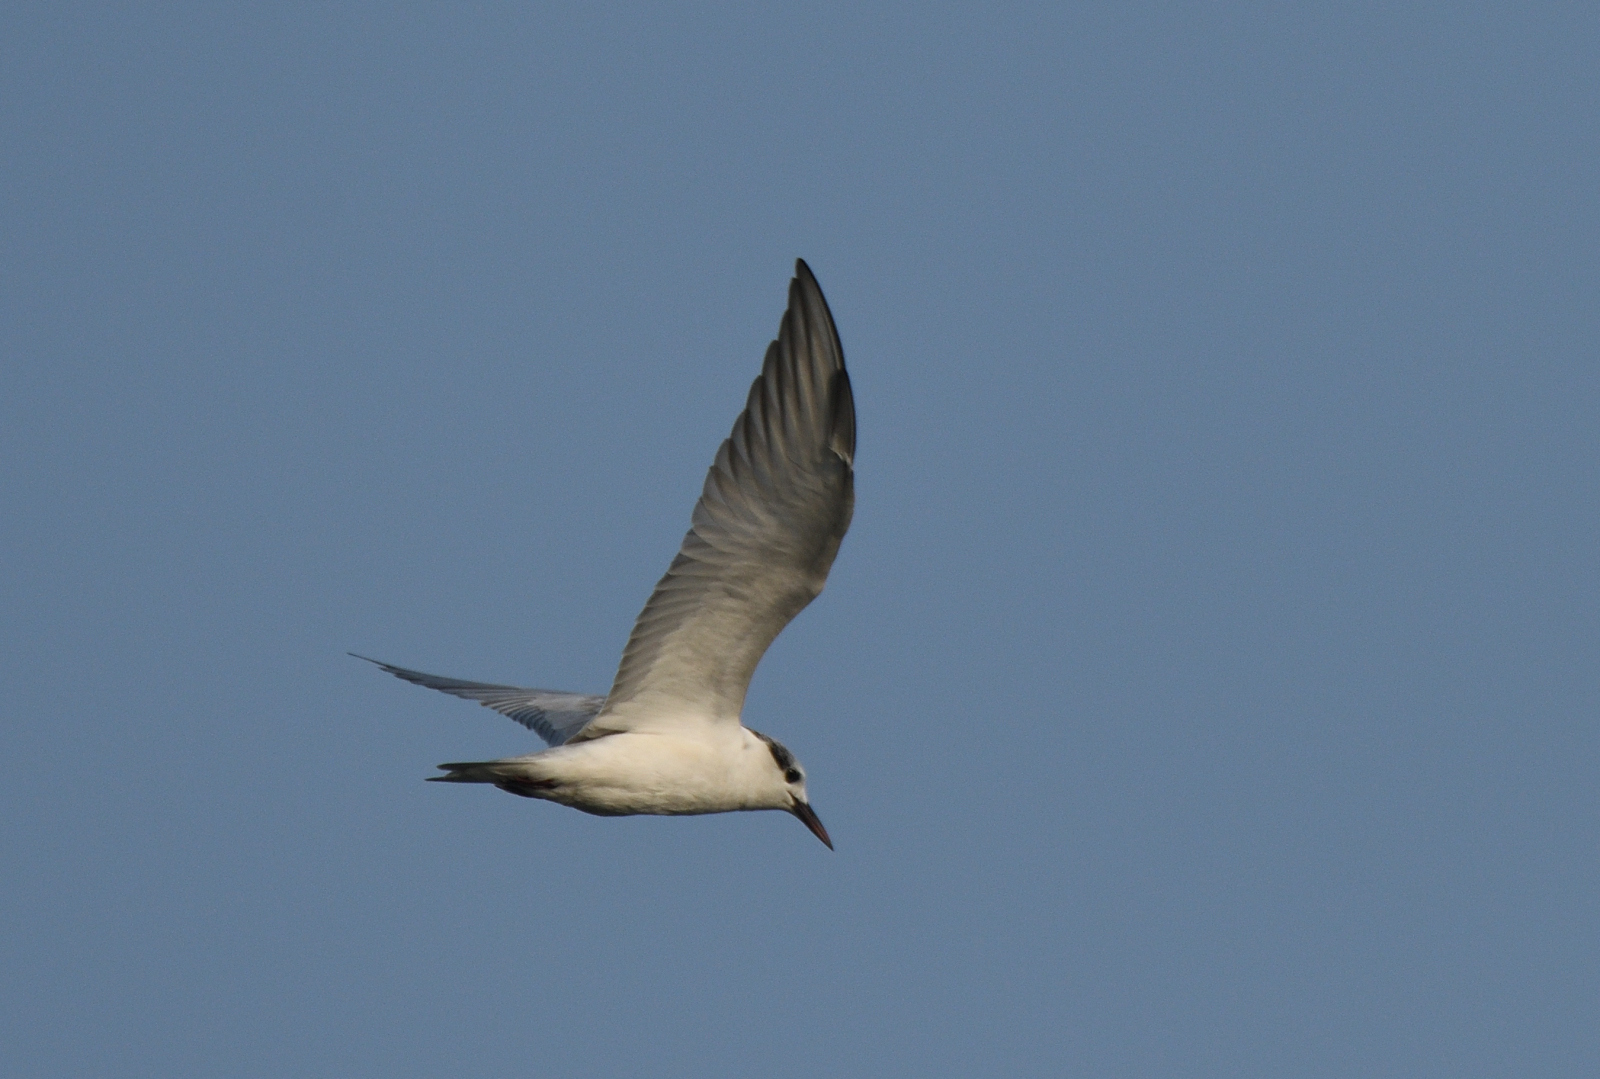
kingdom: Animalia
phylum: Chordata
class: Aves
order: Charadriiformes
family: Laridae
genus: Chlidonias
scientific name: Chlidonias hybrida
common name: Whiskered tern
